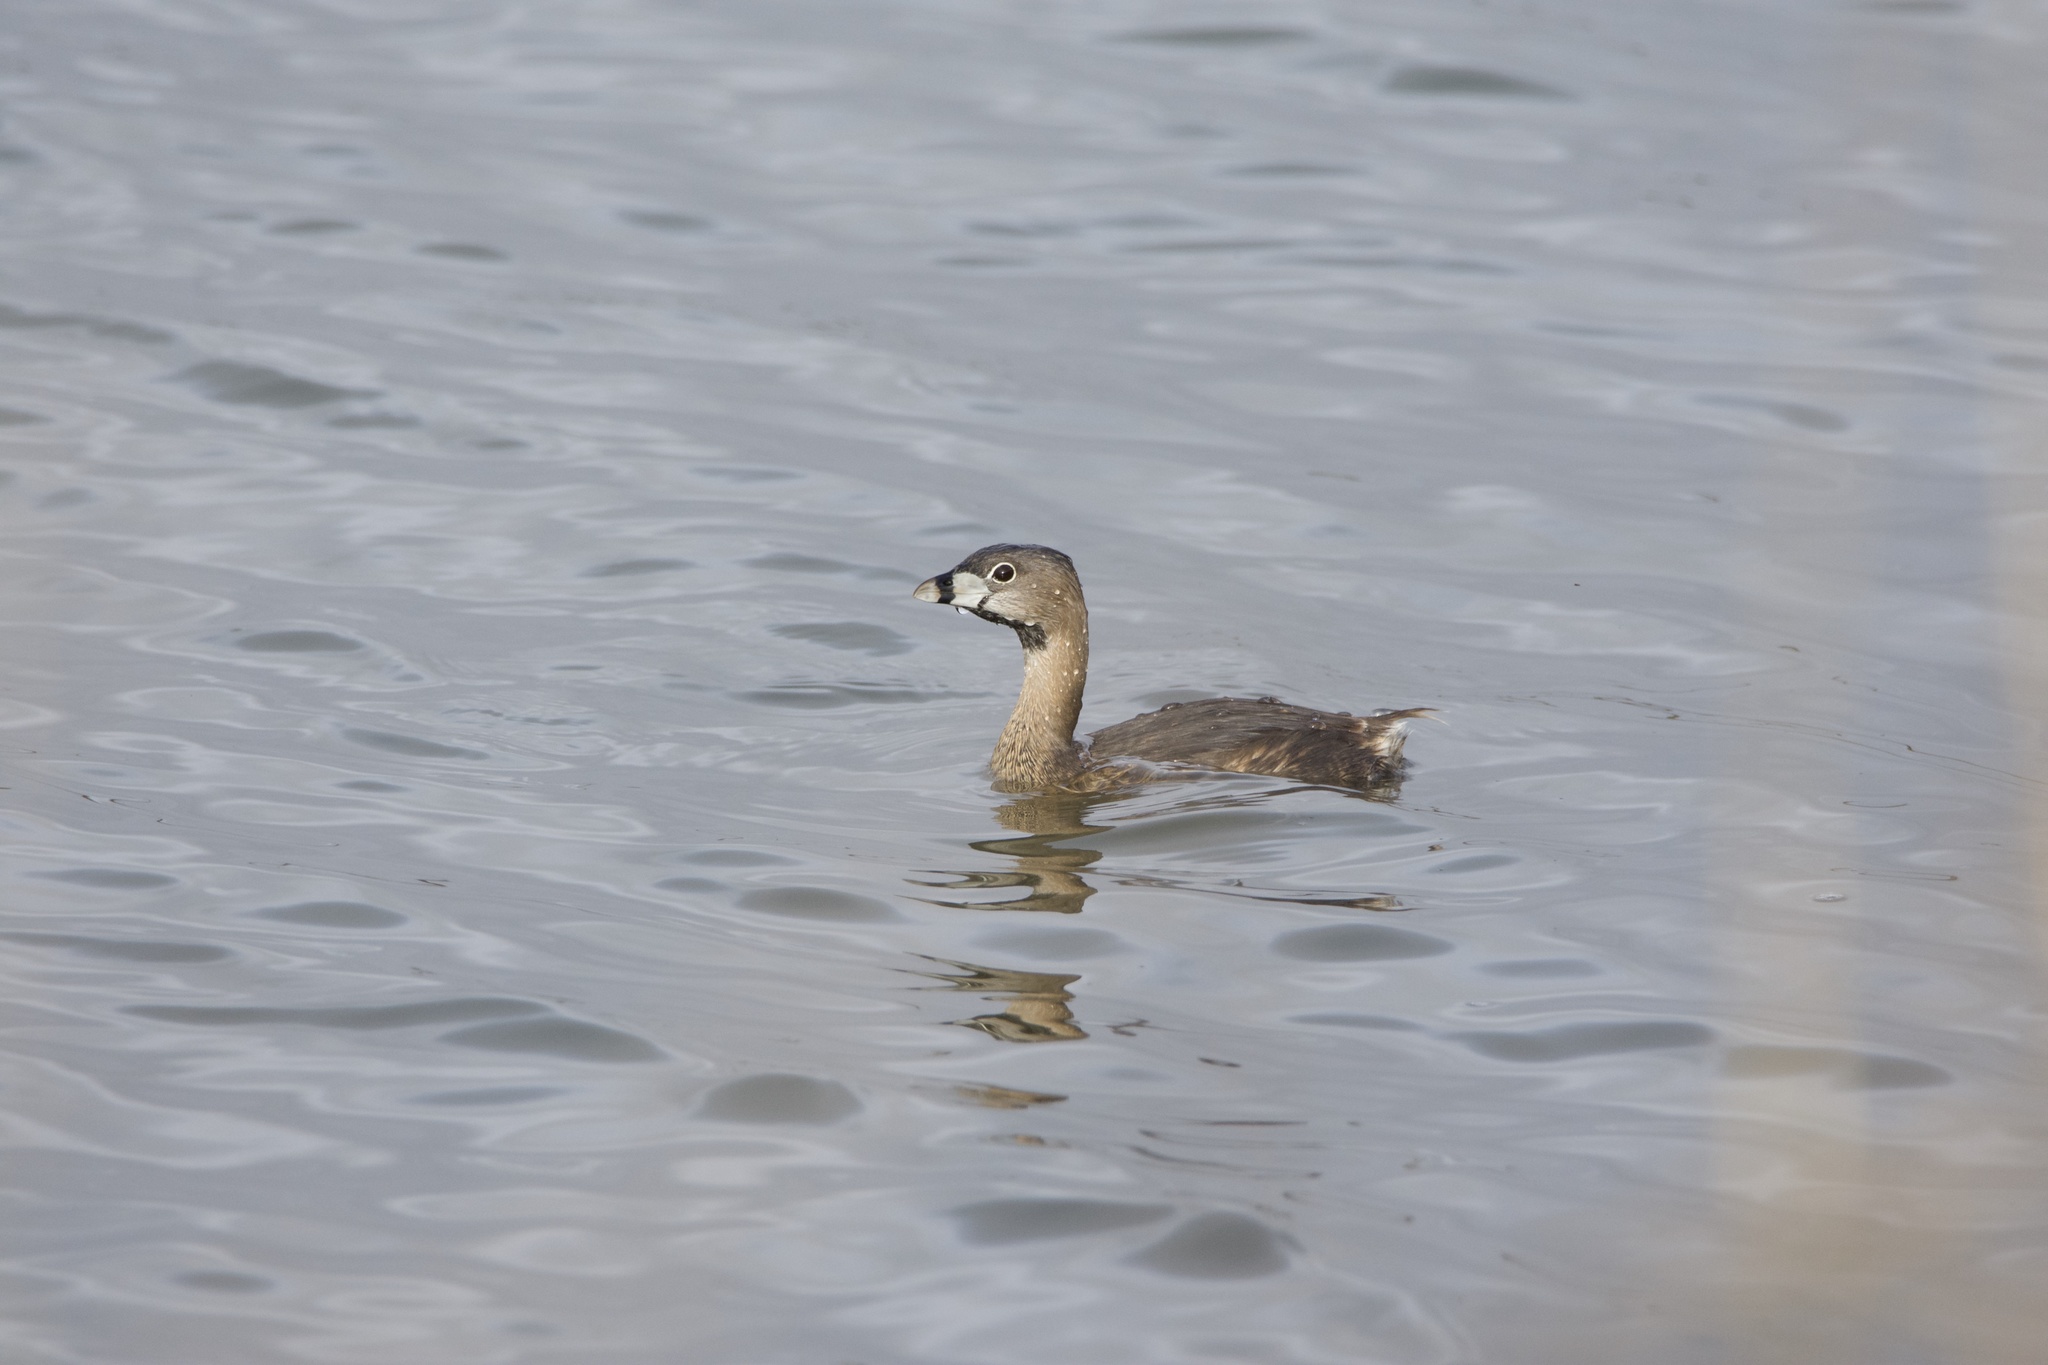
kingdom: Animalia
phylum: Chordata
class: Aves
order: Podicipediformes
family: Podicipedidae
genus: Podilymbus
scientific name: Podilymbus podiceps
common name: Pied-billed grebe
